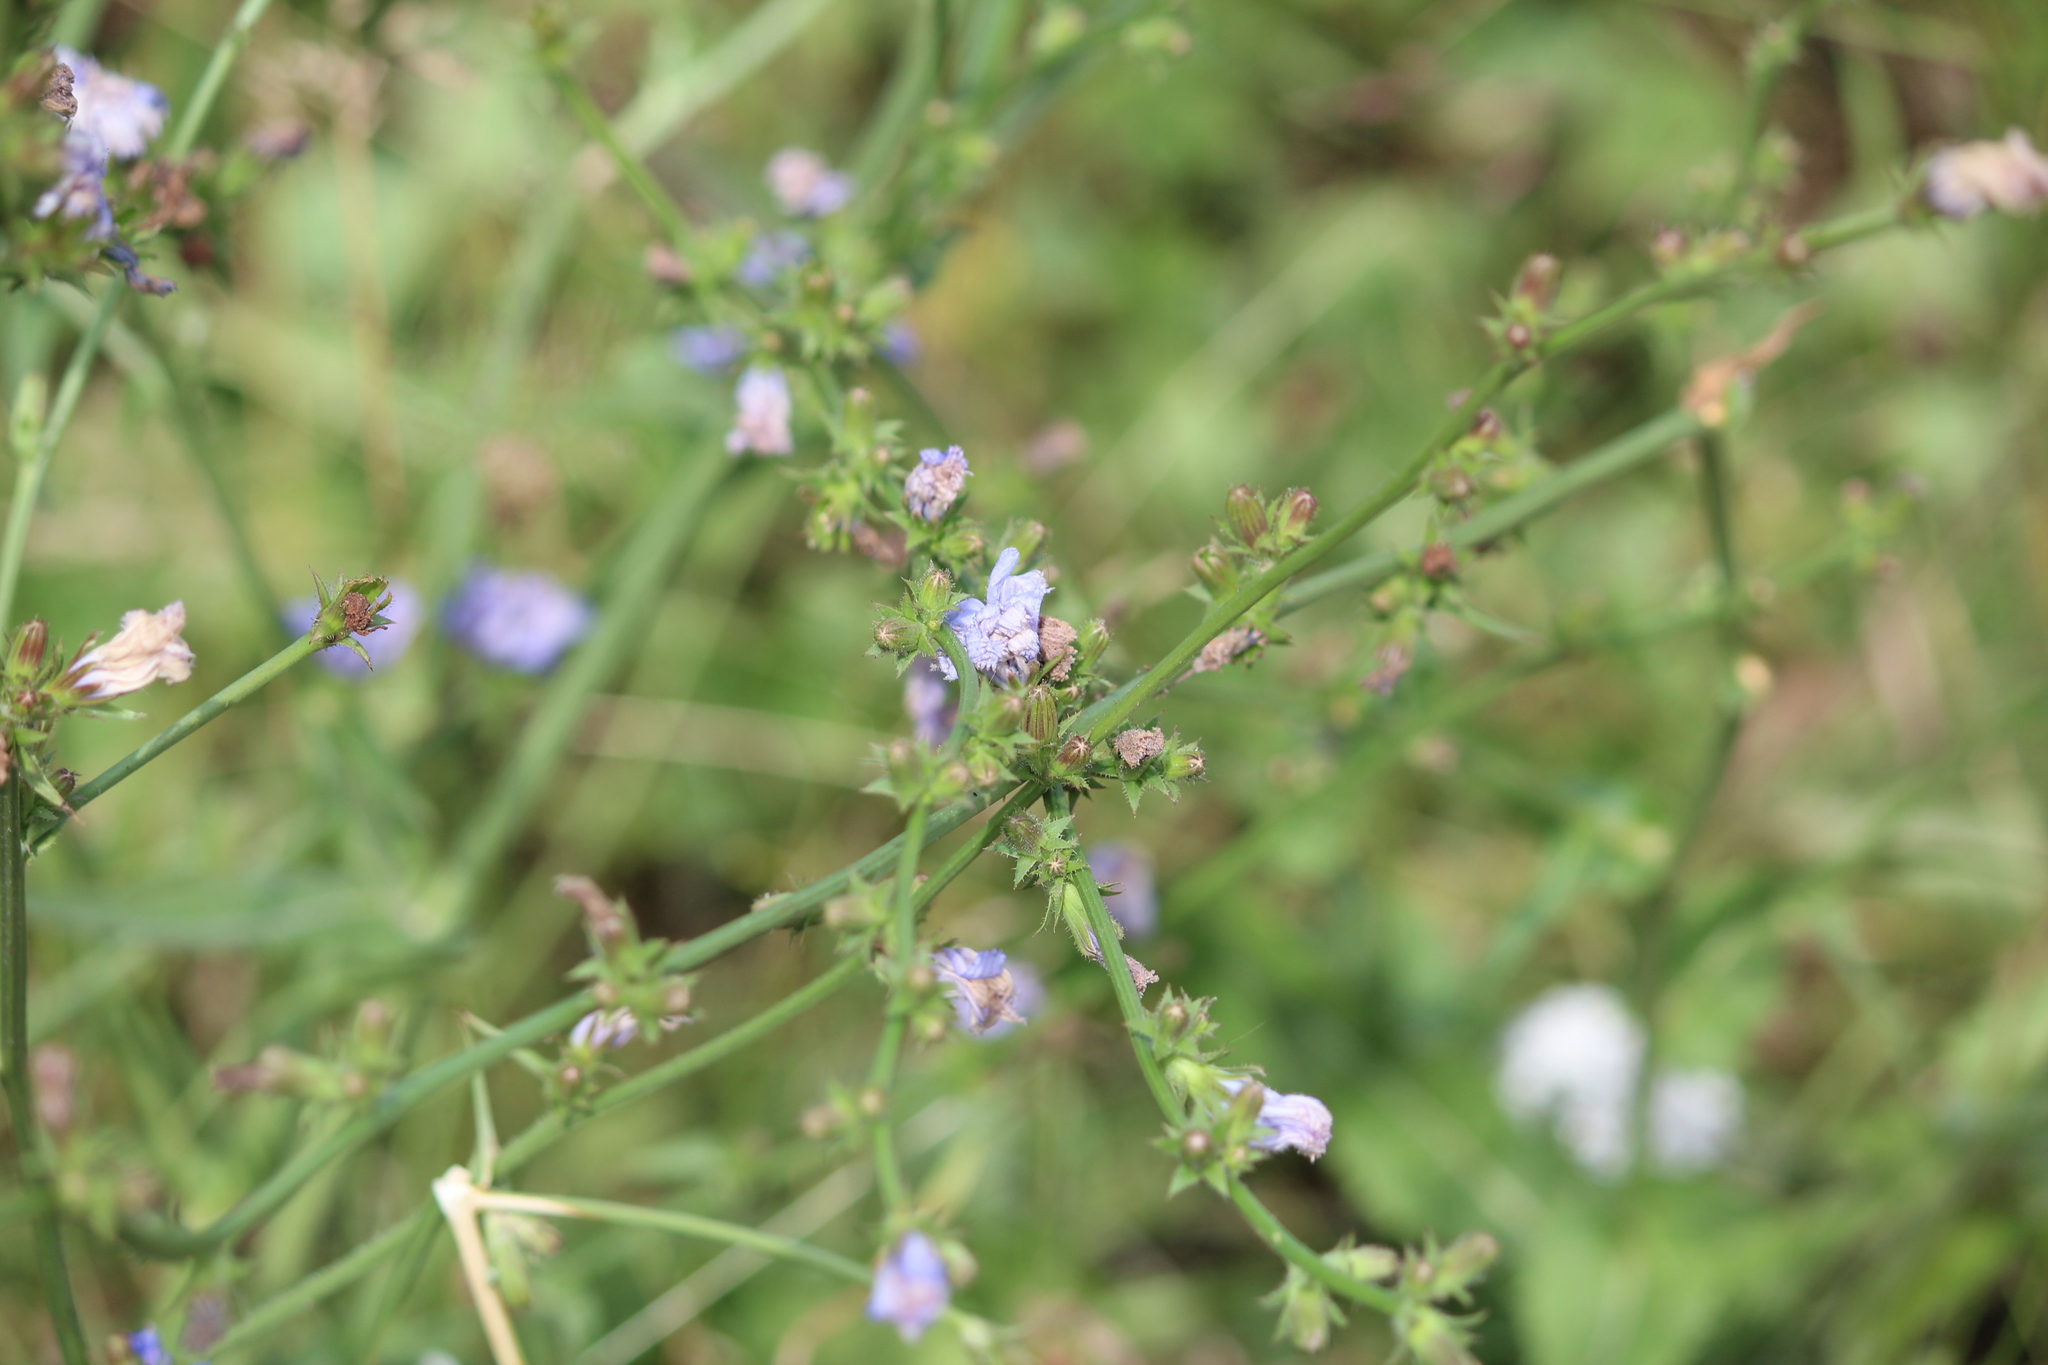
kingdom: Plantae
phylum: Tracheophyta
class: Magnoliopsida
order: Asterales
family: Asteraceae
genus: Cichorium
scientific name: Cichorium intybus
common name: Chicory
